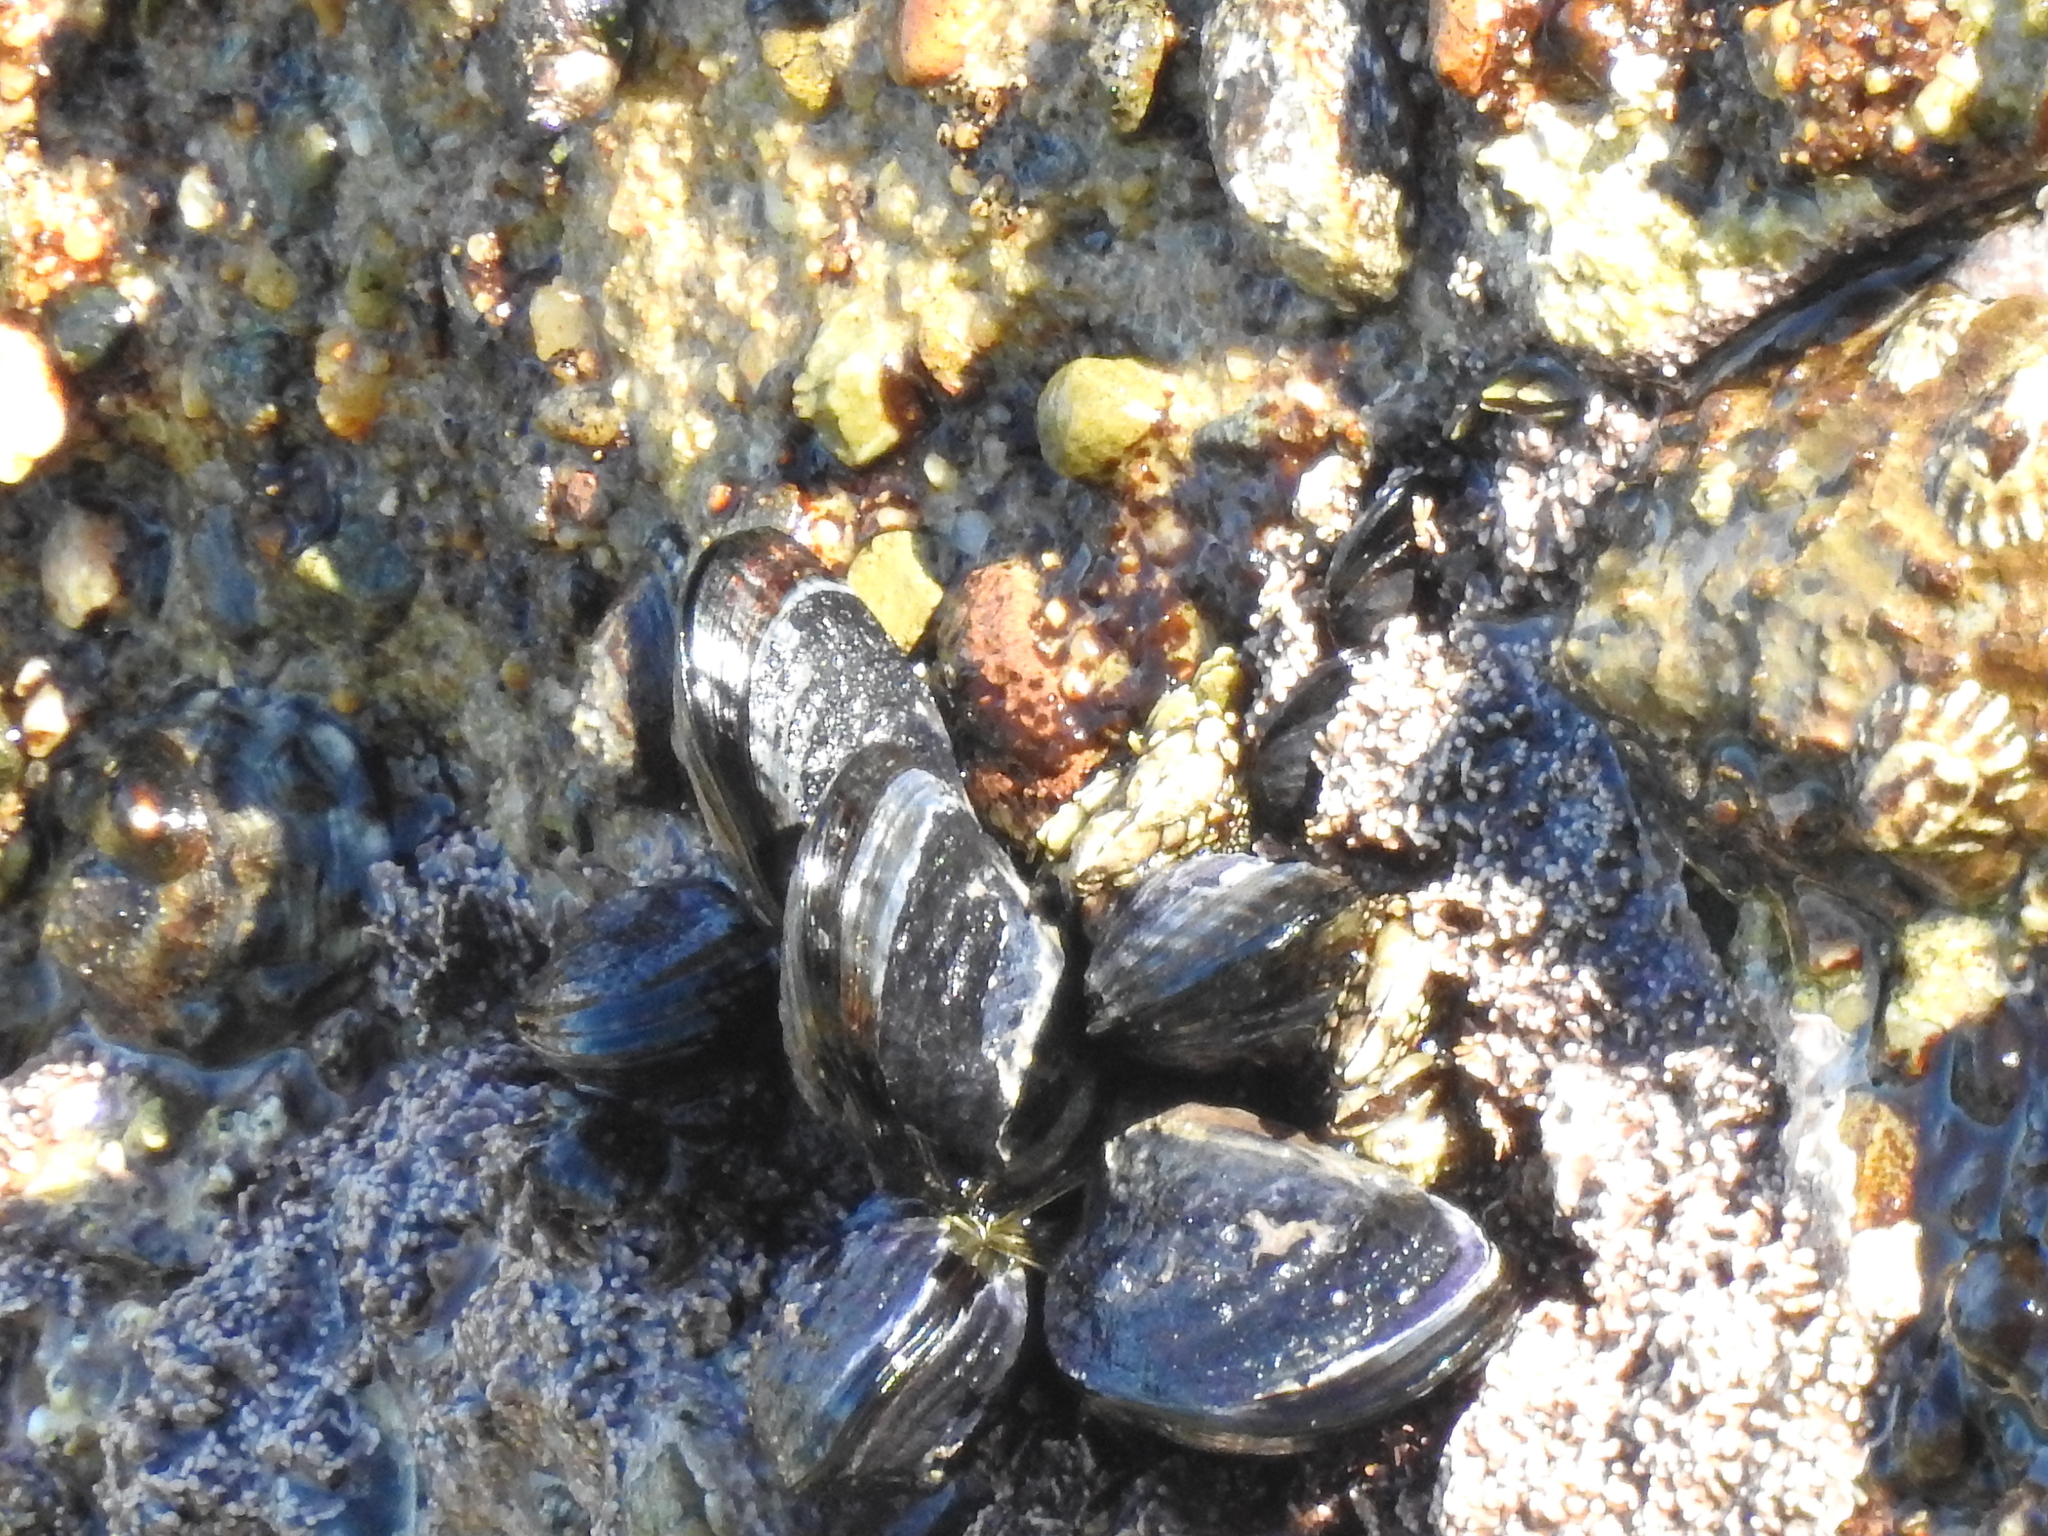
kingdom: Animalia
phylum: Mollusca
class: Bivalvia
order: Mytilida
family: Mytilidae
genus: Mytilus
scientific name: Mytilus californianus
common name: California mussel
